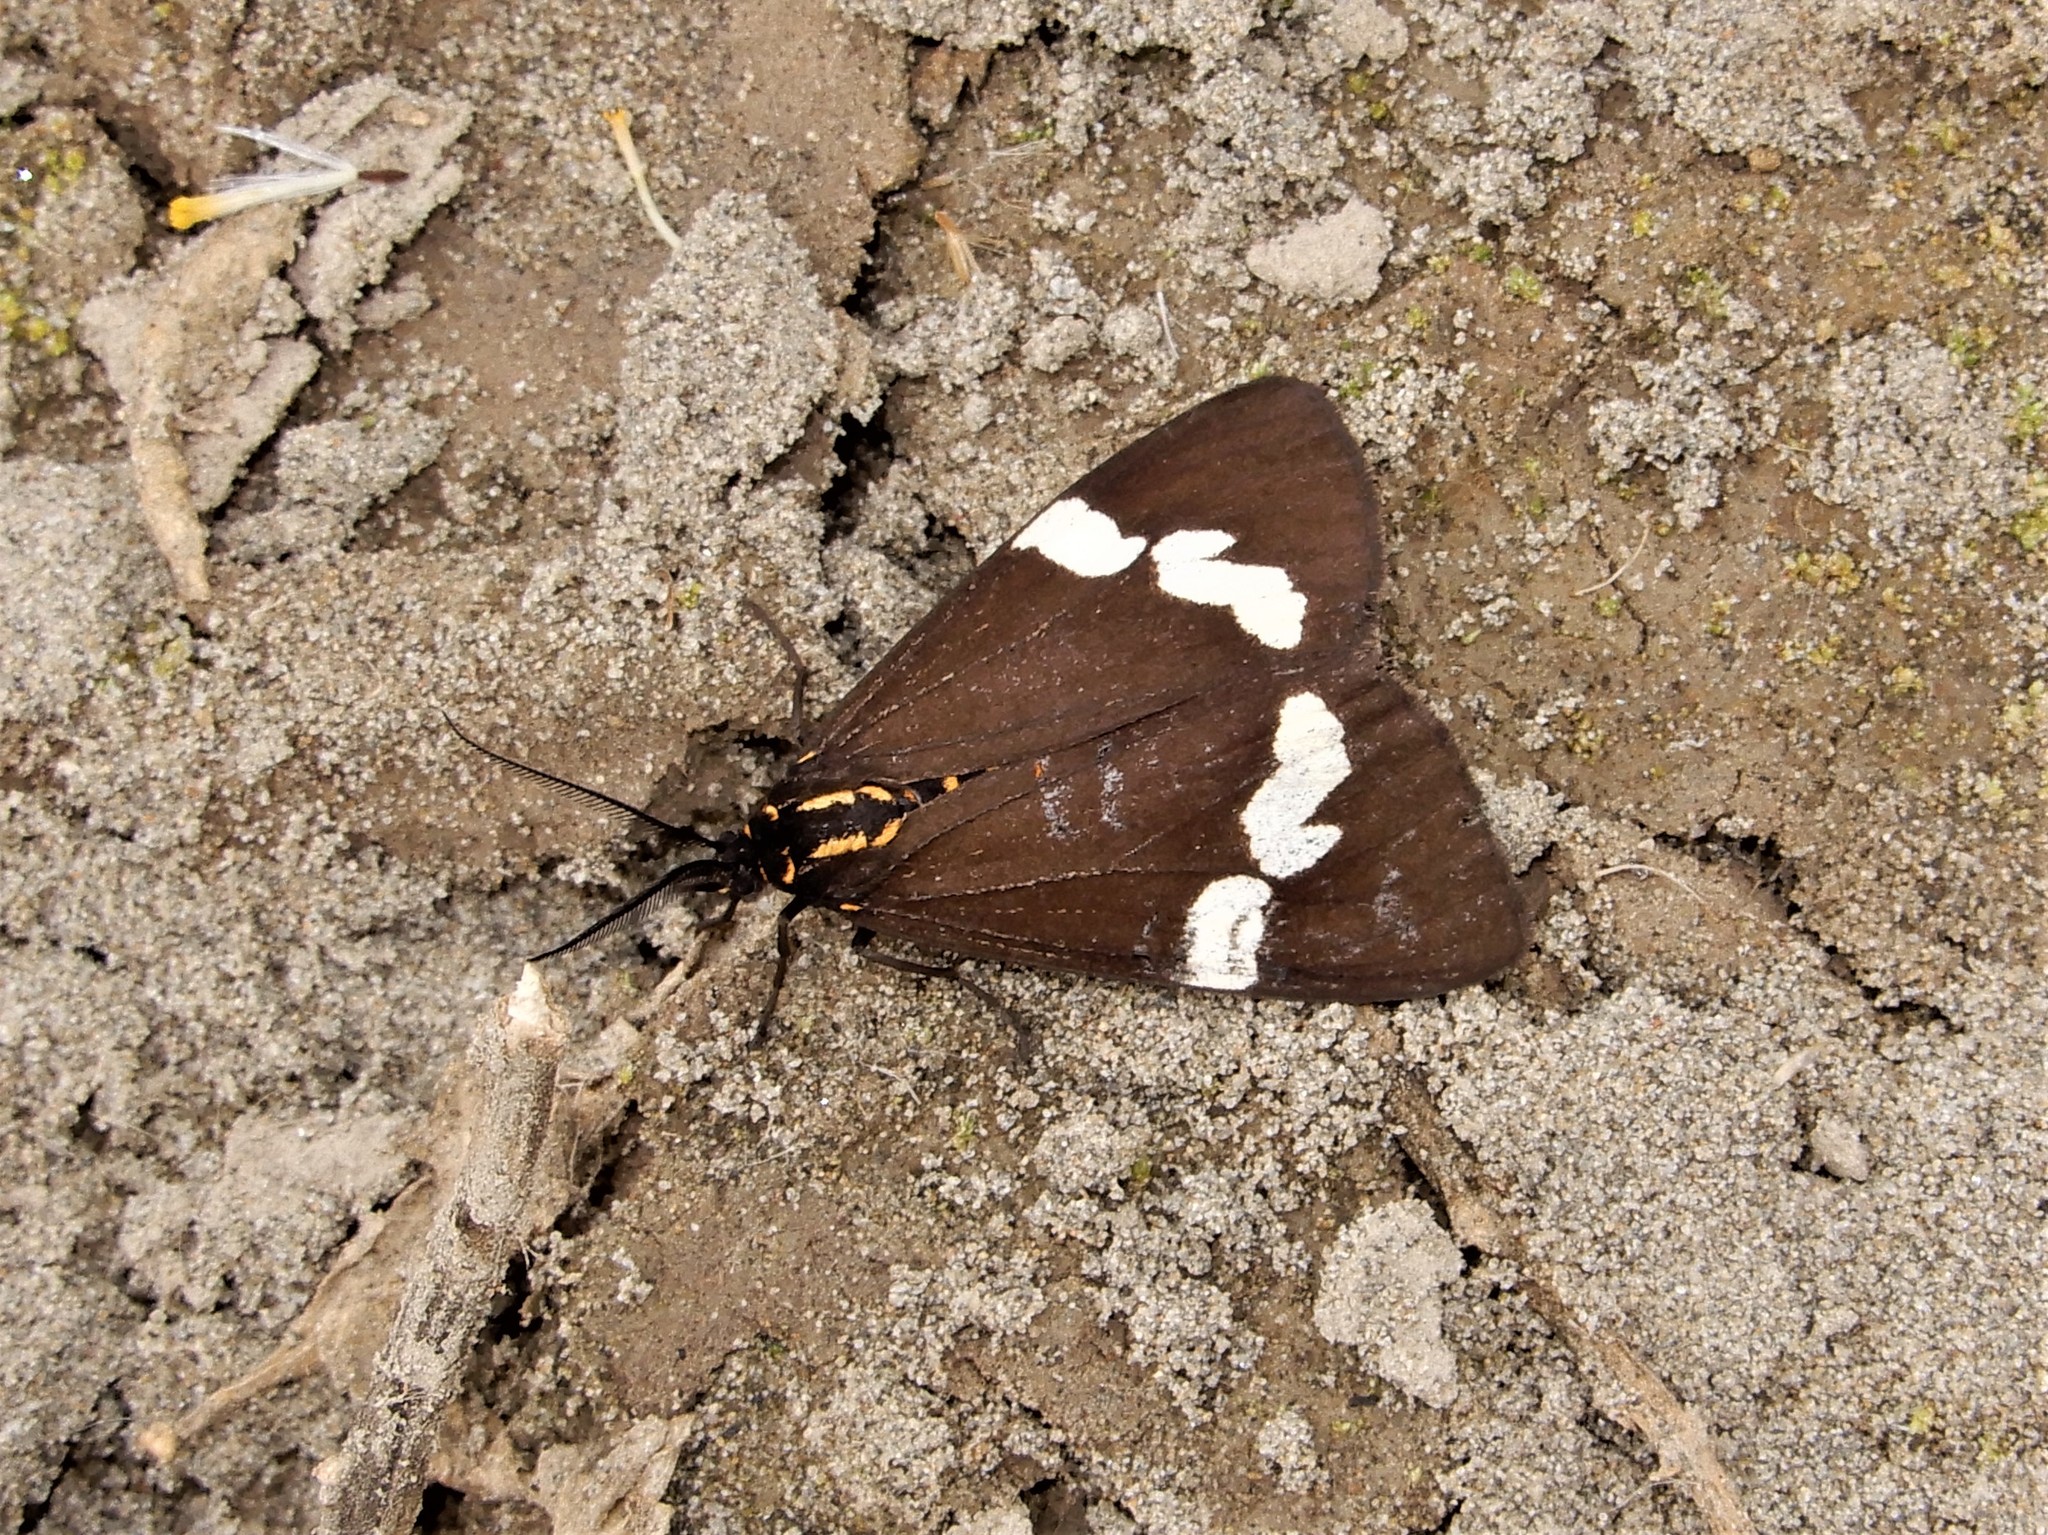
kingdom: Animalia
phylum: Arthropoda
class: Insecta
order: Lepidoptera
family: Erebidae
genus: Nyctemera
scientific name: Nyctemera annulatum
